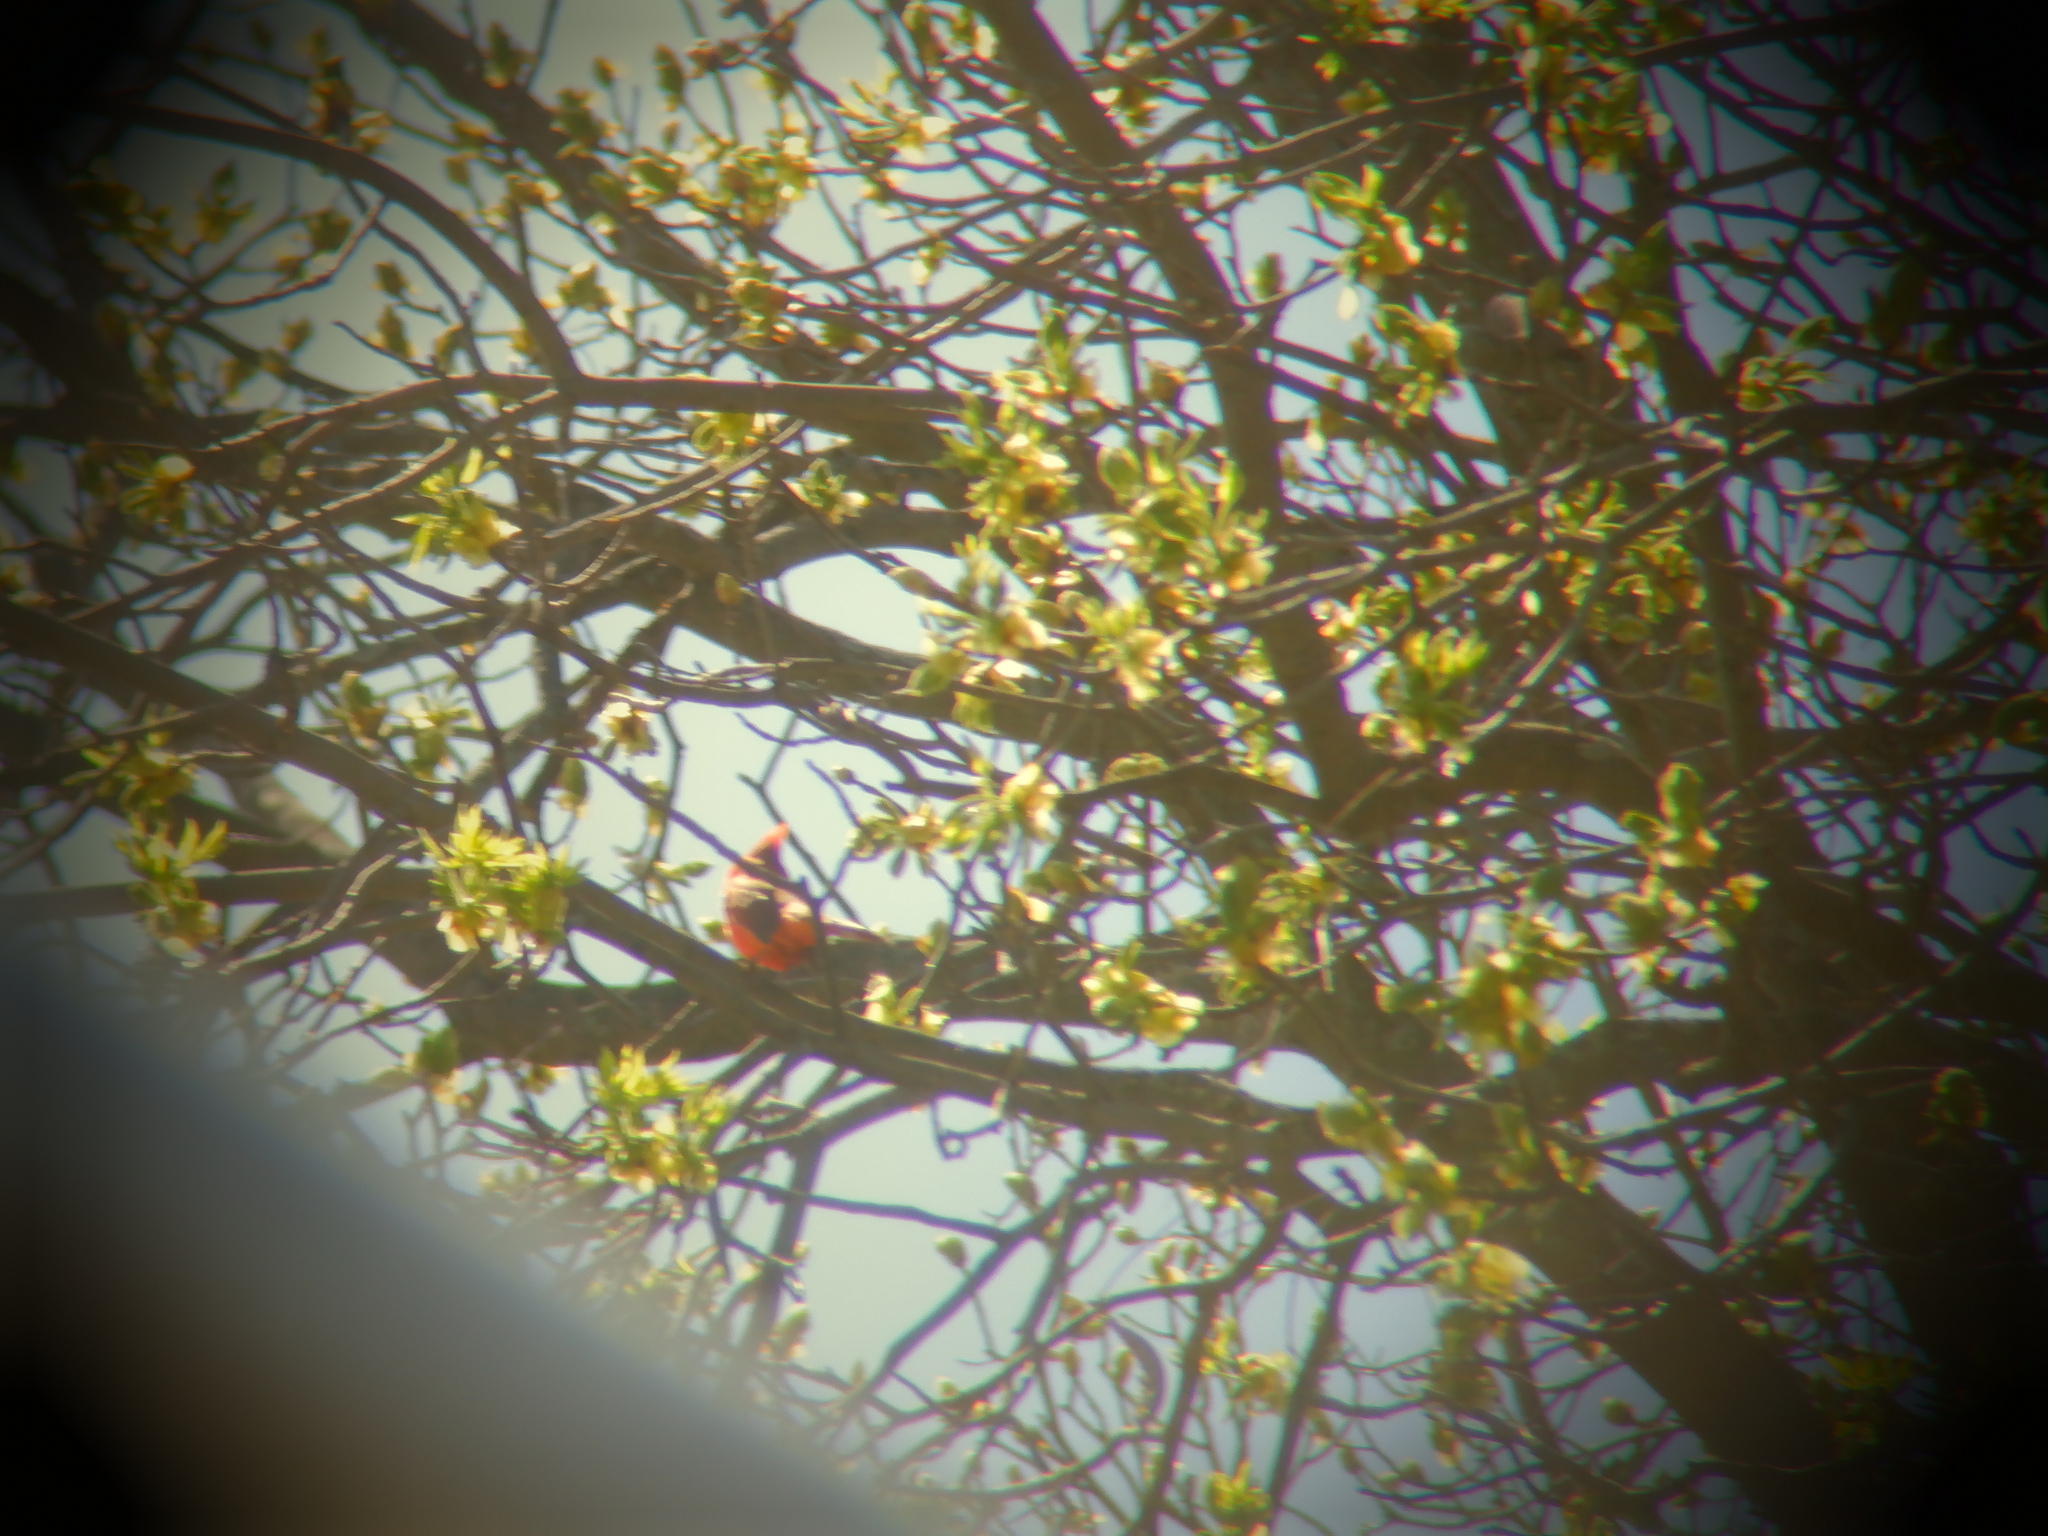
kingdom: Animalia
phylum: Chordata
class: Aves
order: Passeriformes
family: Cardinalidae
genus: Cardinalis
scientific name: Cardinalis cardinalis
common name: Northern cardinal
